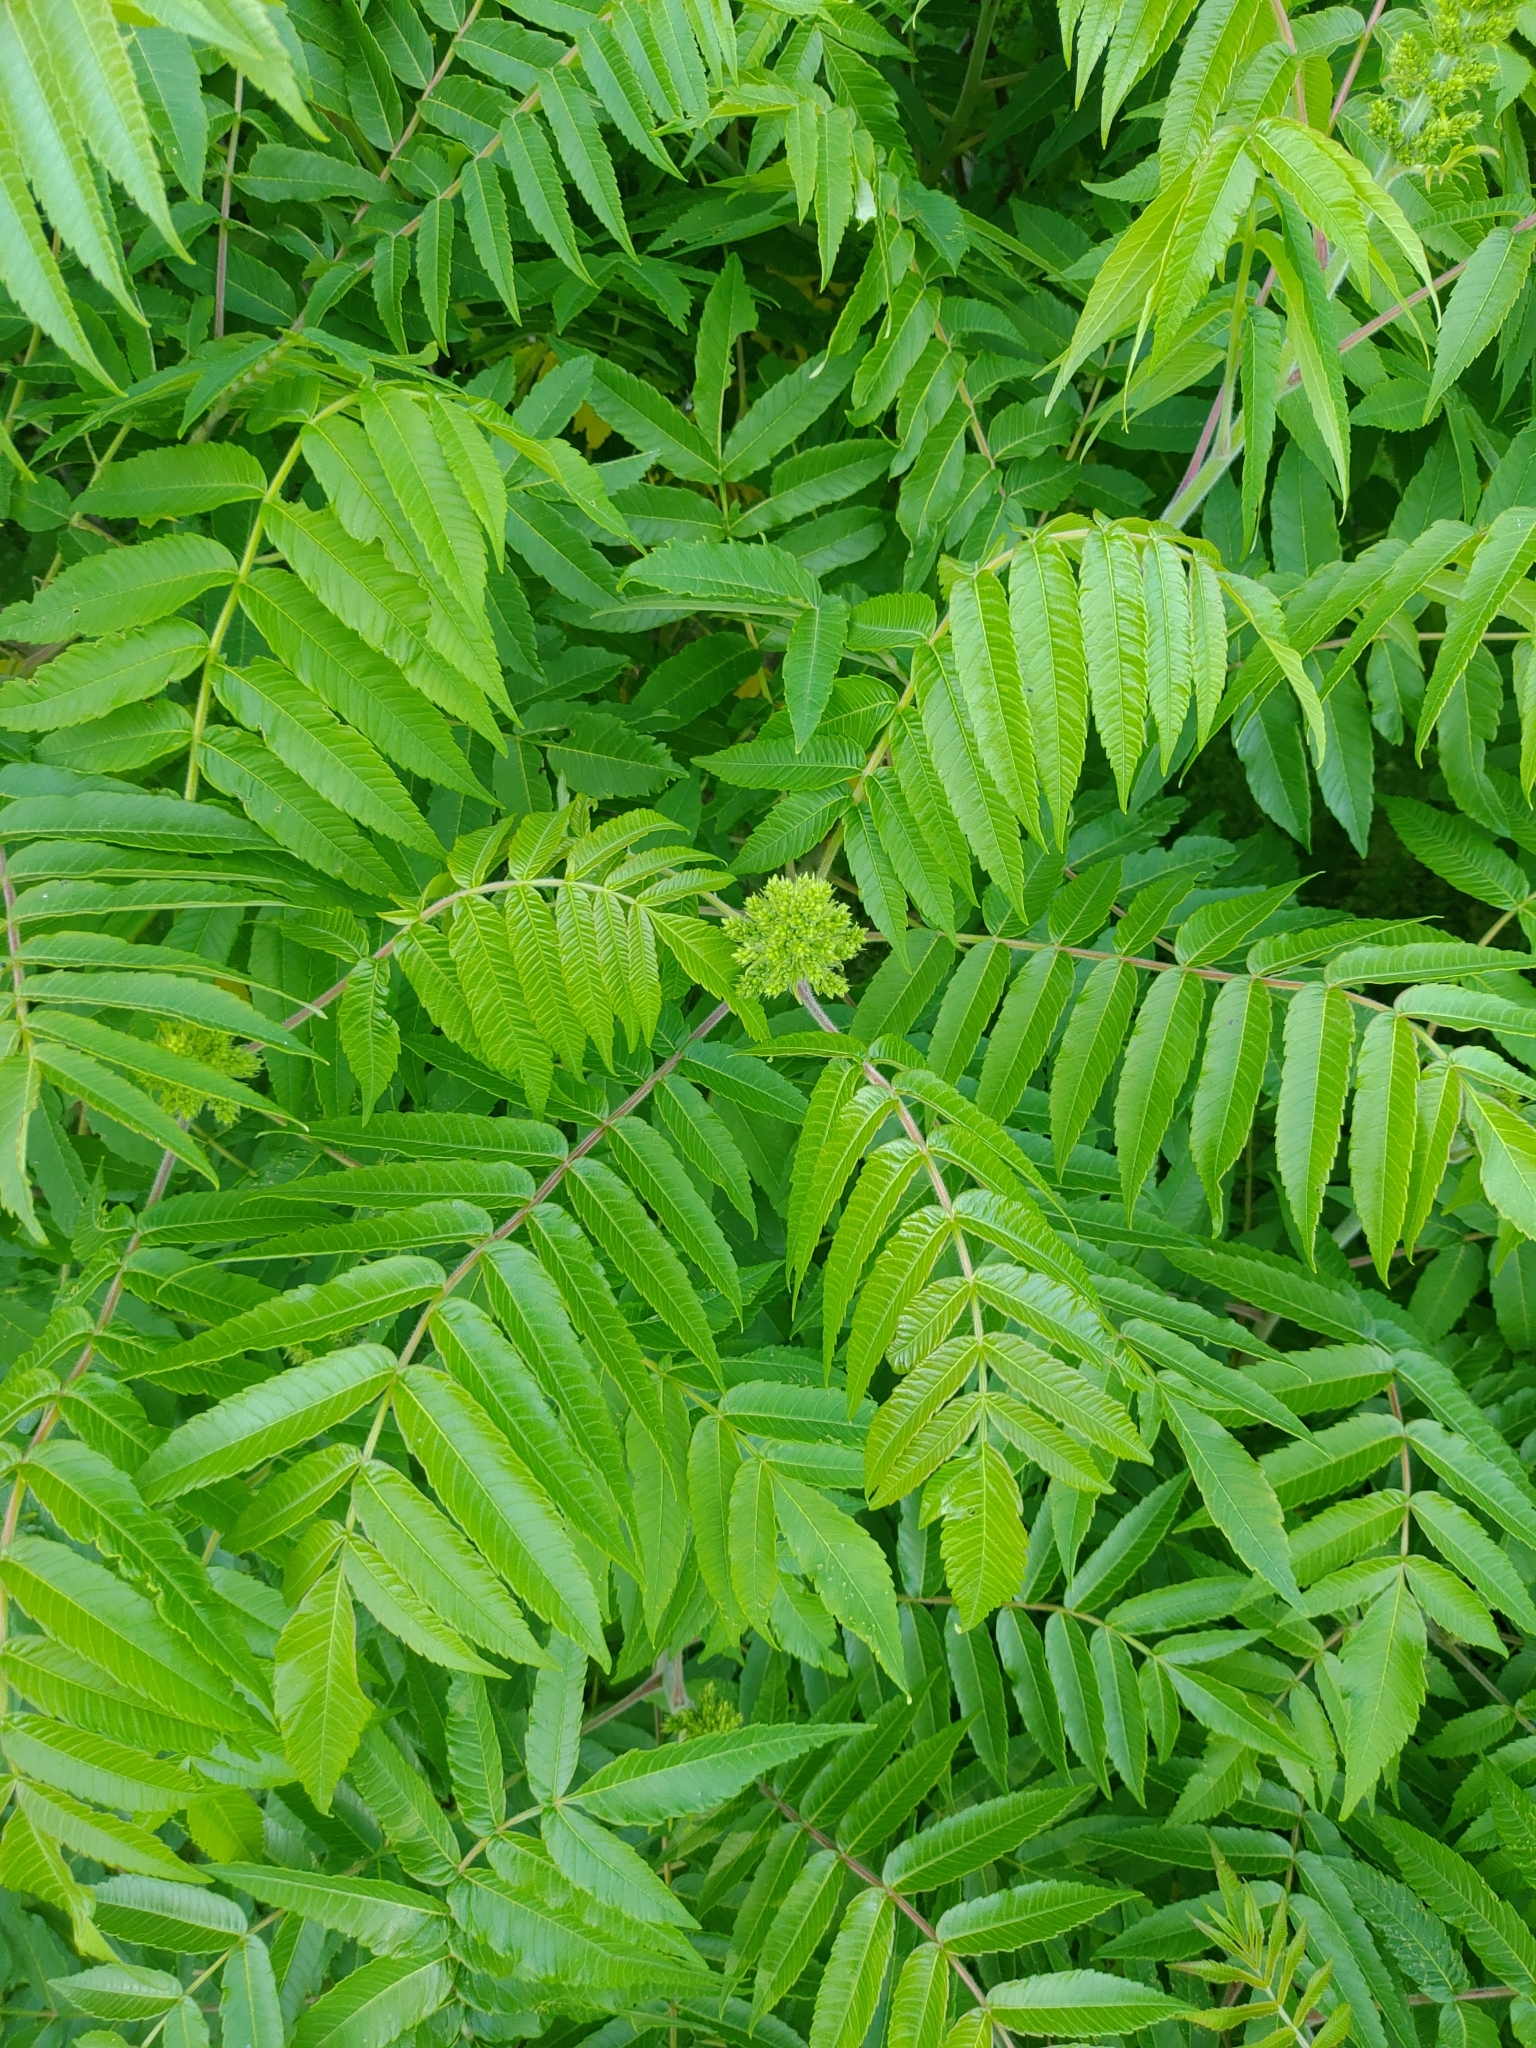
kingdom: Plantae
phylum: Tracheophyta
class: Magnoliopsida
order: Sapindales
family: Anacardiaceae
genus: Rhus
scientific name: Rhus typhina
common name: Staghorn sumac
